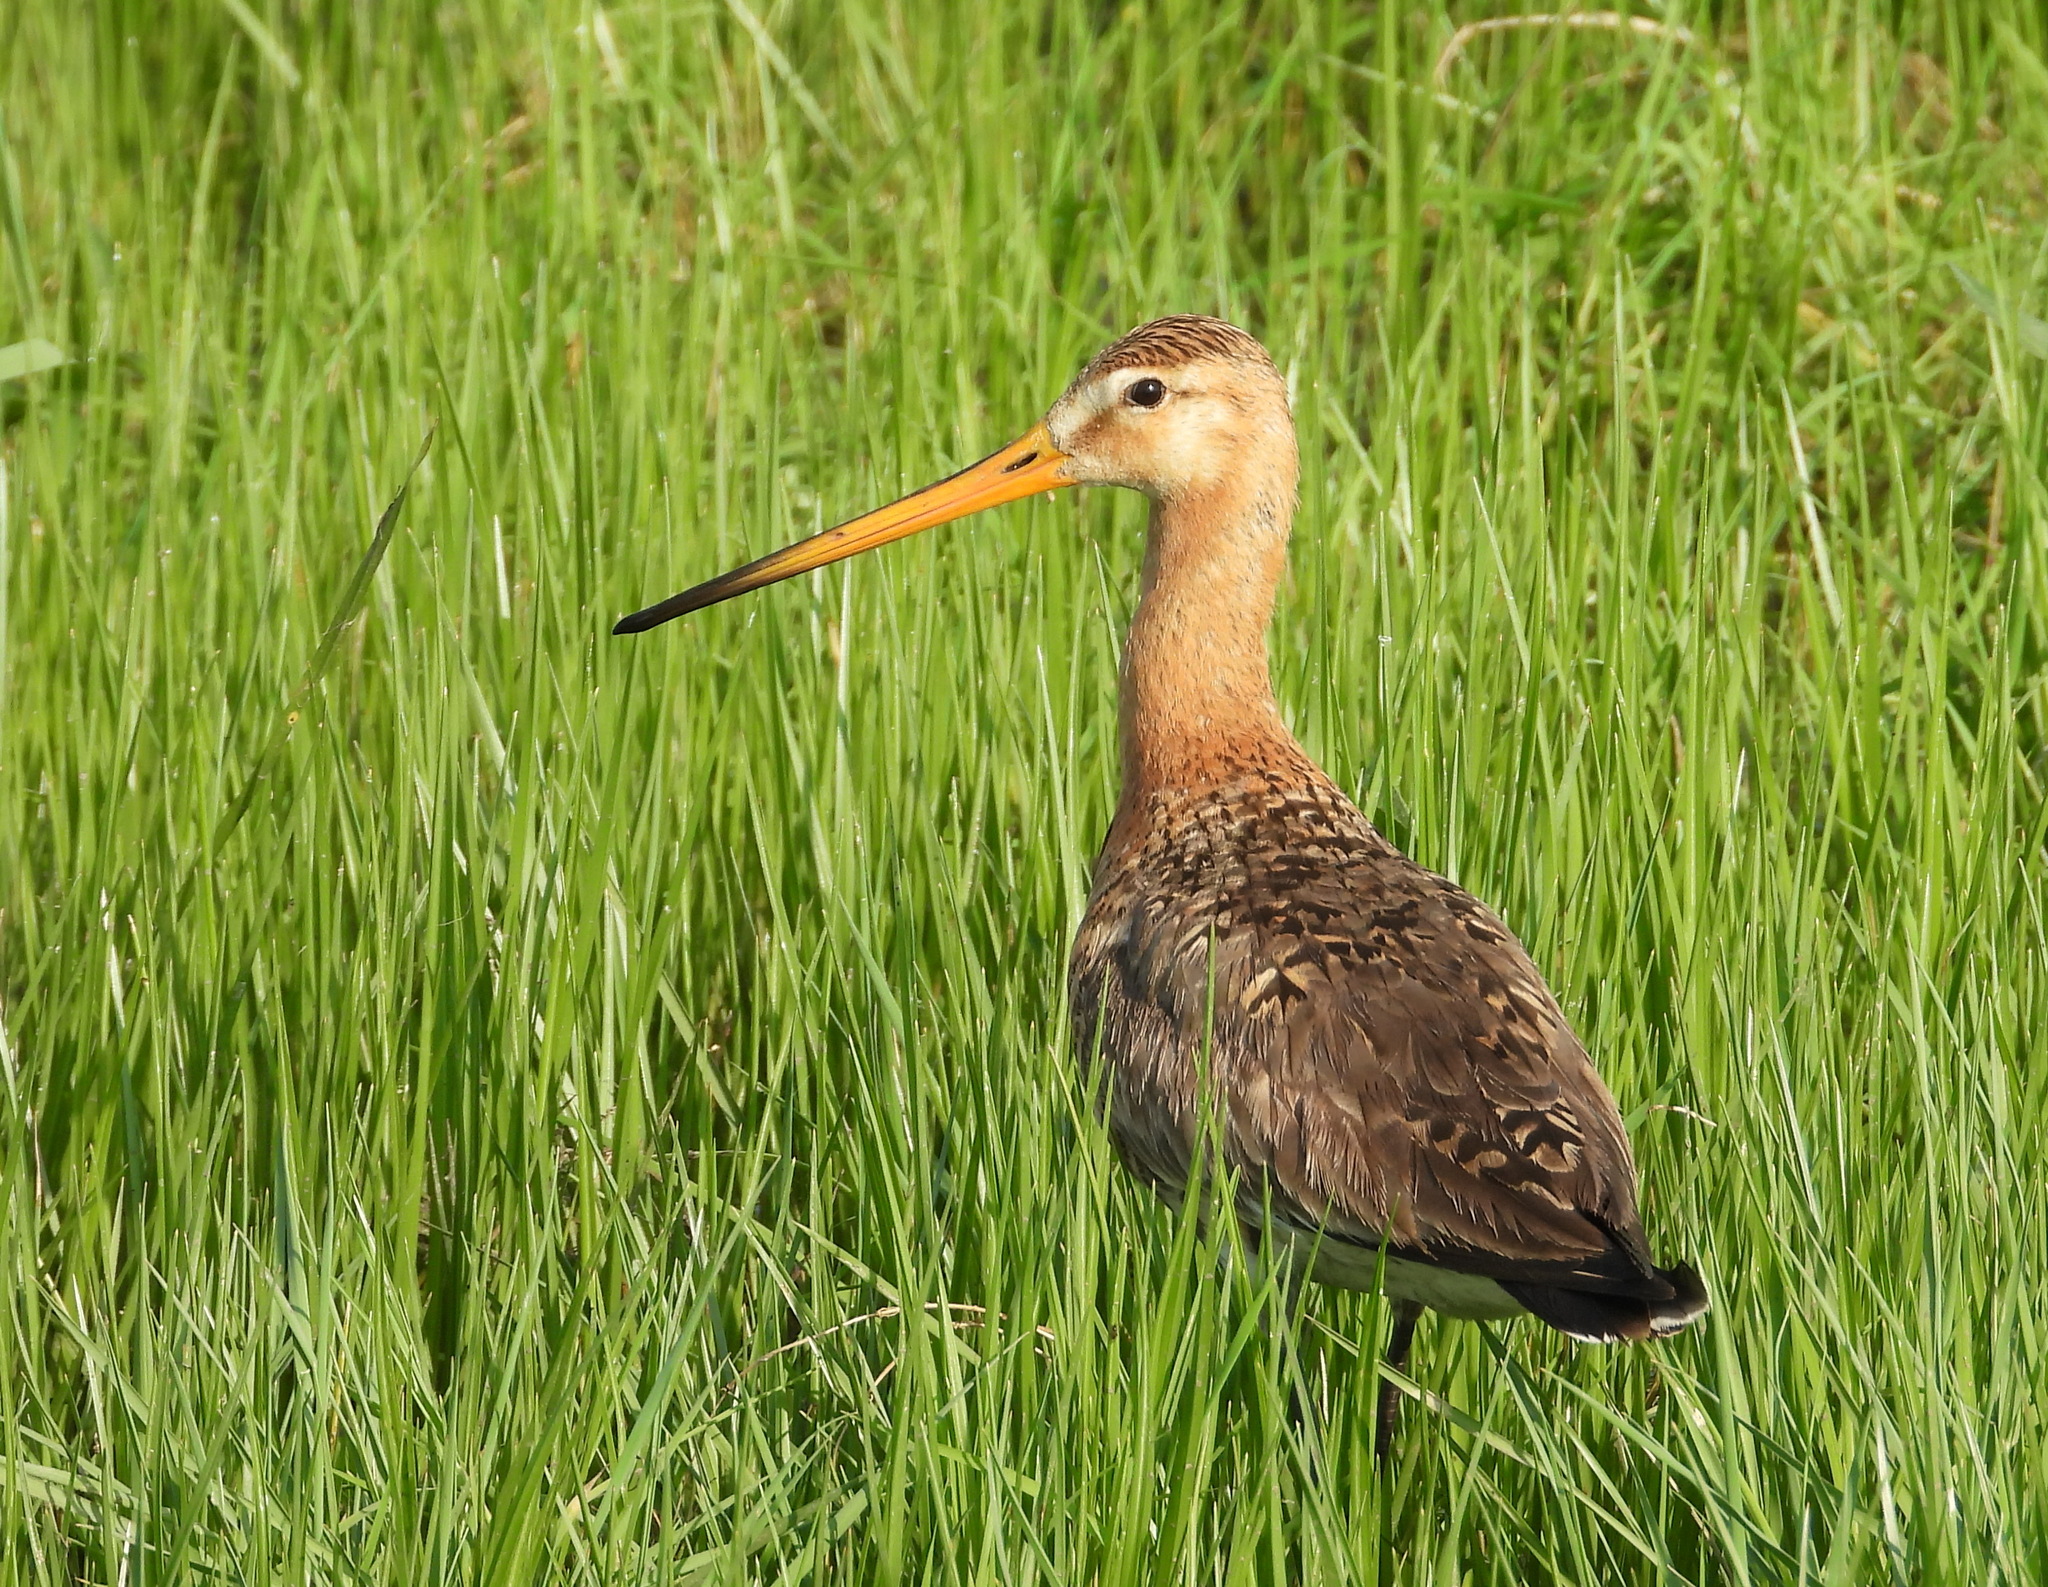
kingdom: Animalia
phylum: Chordata
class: Aves
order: Charadriiformes
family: Scolopacidae
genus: Limosa
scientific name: Limosa limosa
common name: Black-tailed godwit
